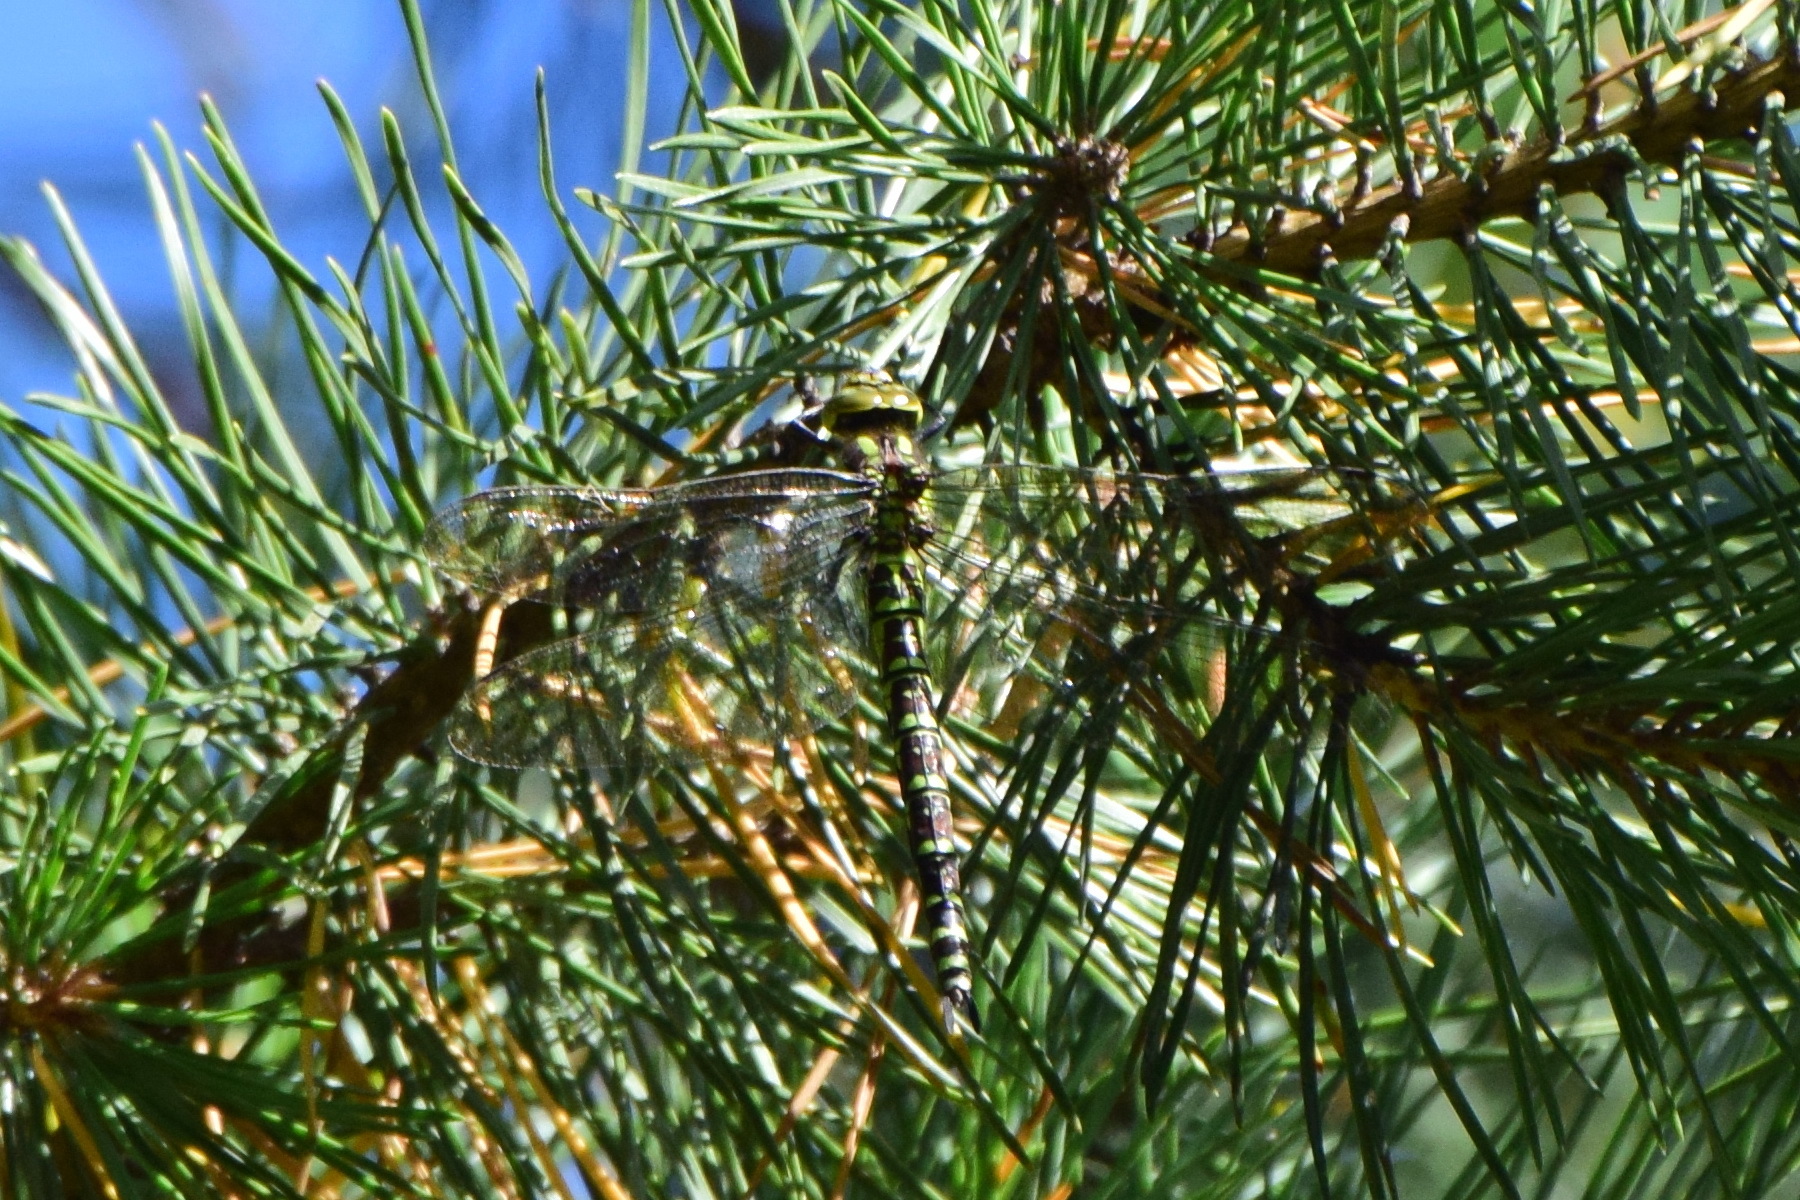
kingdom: Animalia
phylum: Arthropoda
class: Insecta
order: Odonata
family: Aeshnidae
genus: Aeshna
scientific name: Aeshna cyanea
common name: Southern hawker
